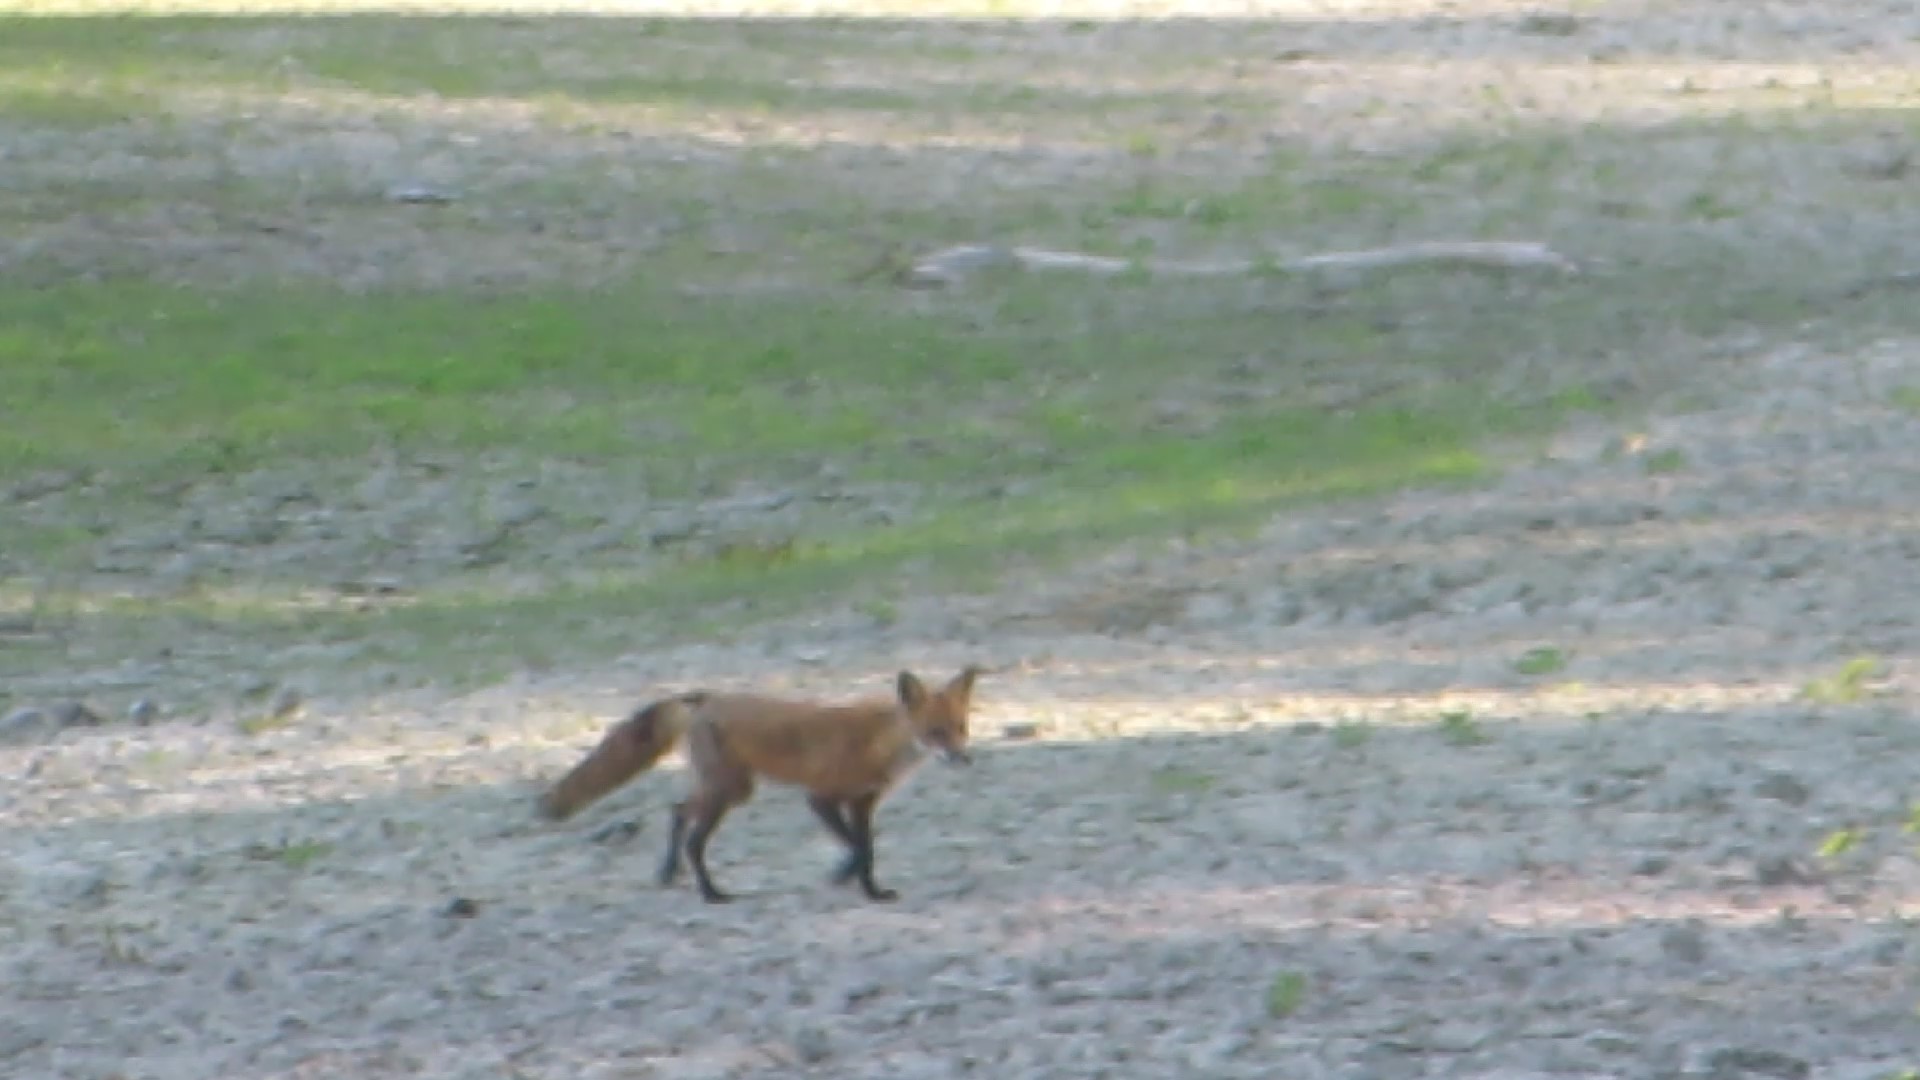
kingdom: Animalia
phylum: Chordata
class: Mammalia
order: Carnivora
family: Canidae
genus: Vulpes
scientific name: Vulpes vulpes
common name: Red fox
